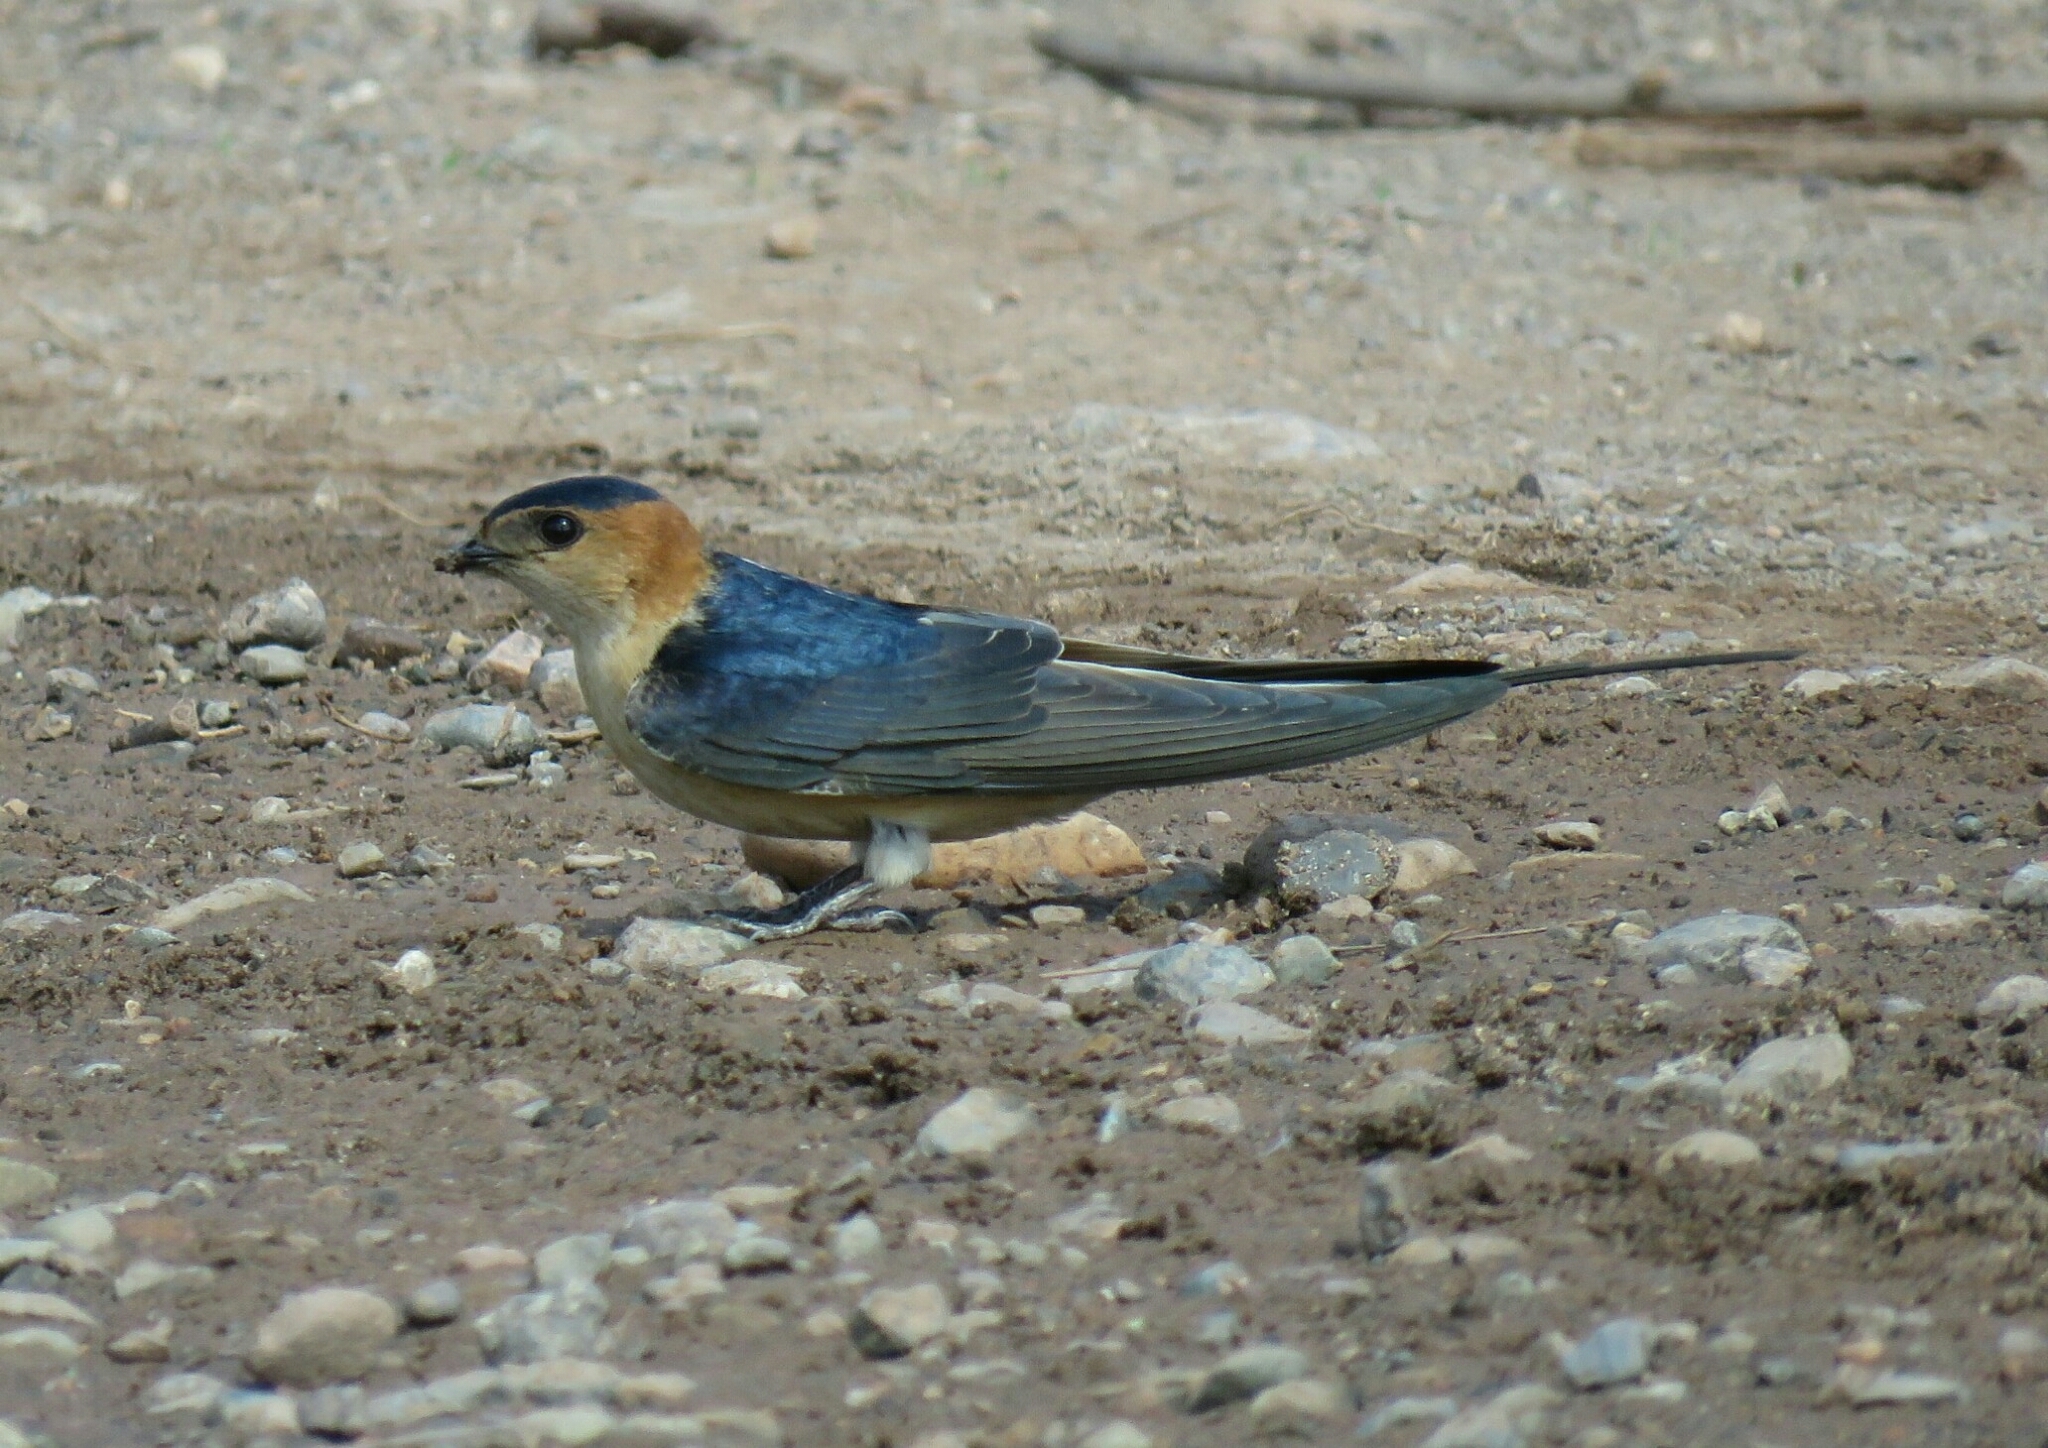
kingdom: Animalia
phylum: Chordata
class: Aves
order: Passeriformes
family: Hirundinidae
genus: Cecropis
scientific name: Cecropis daurica
